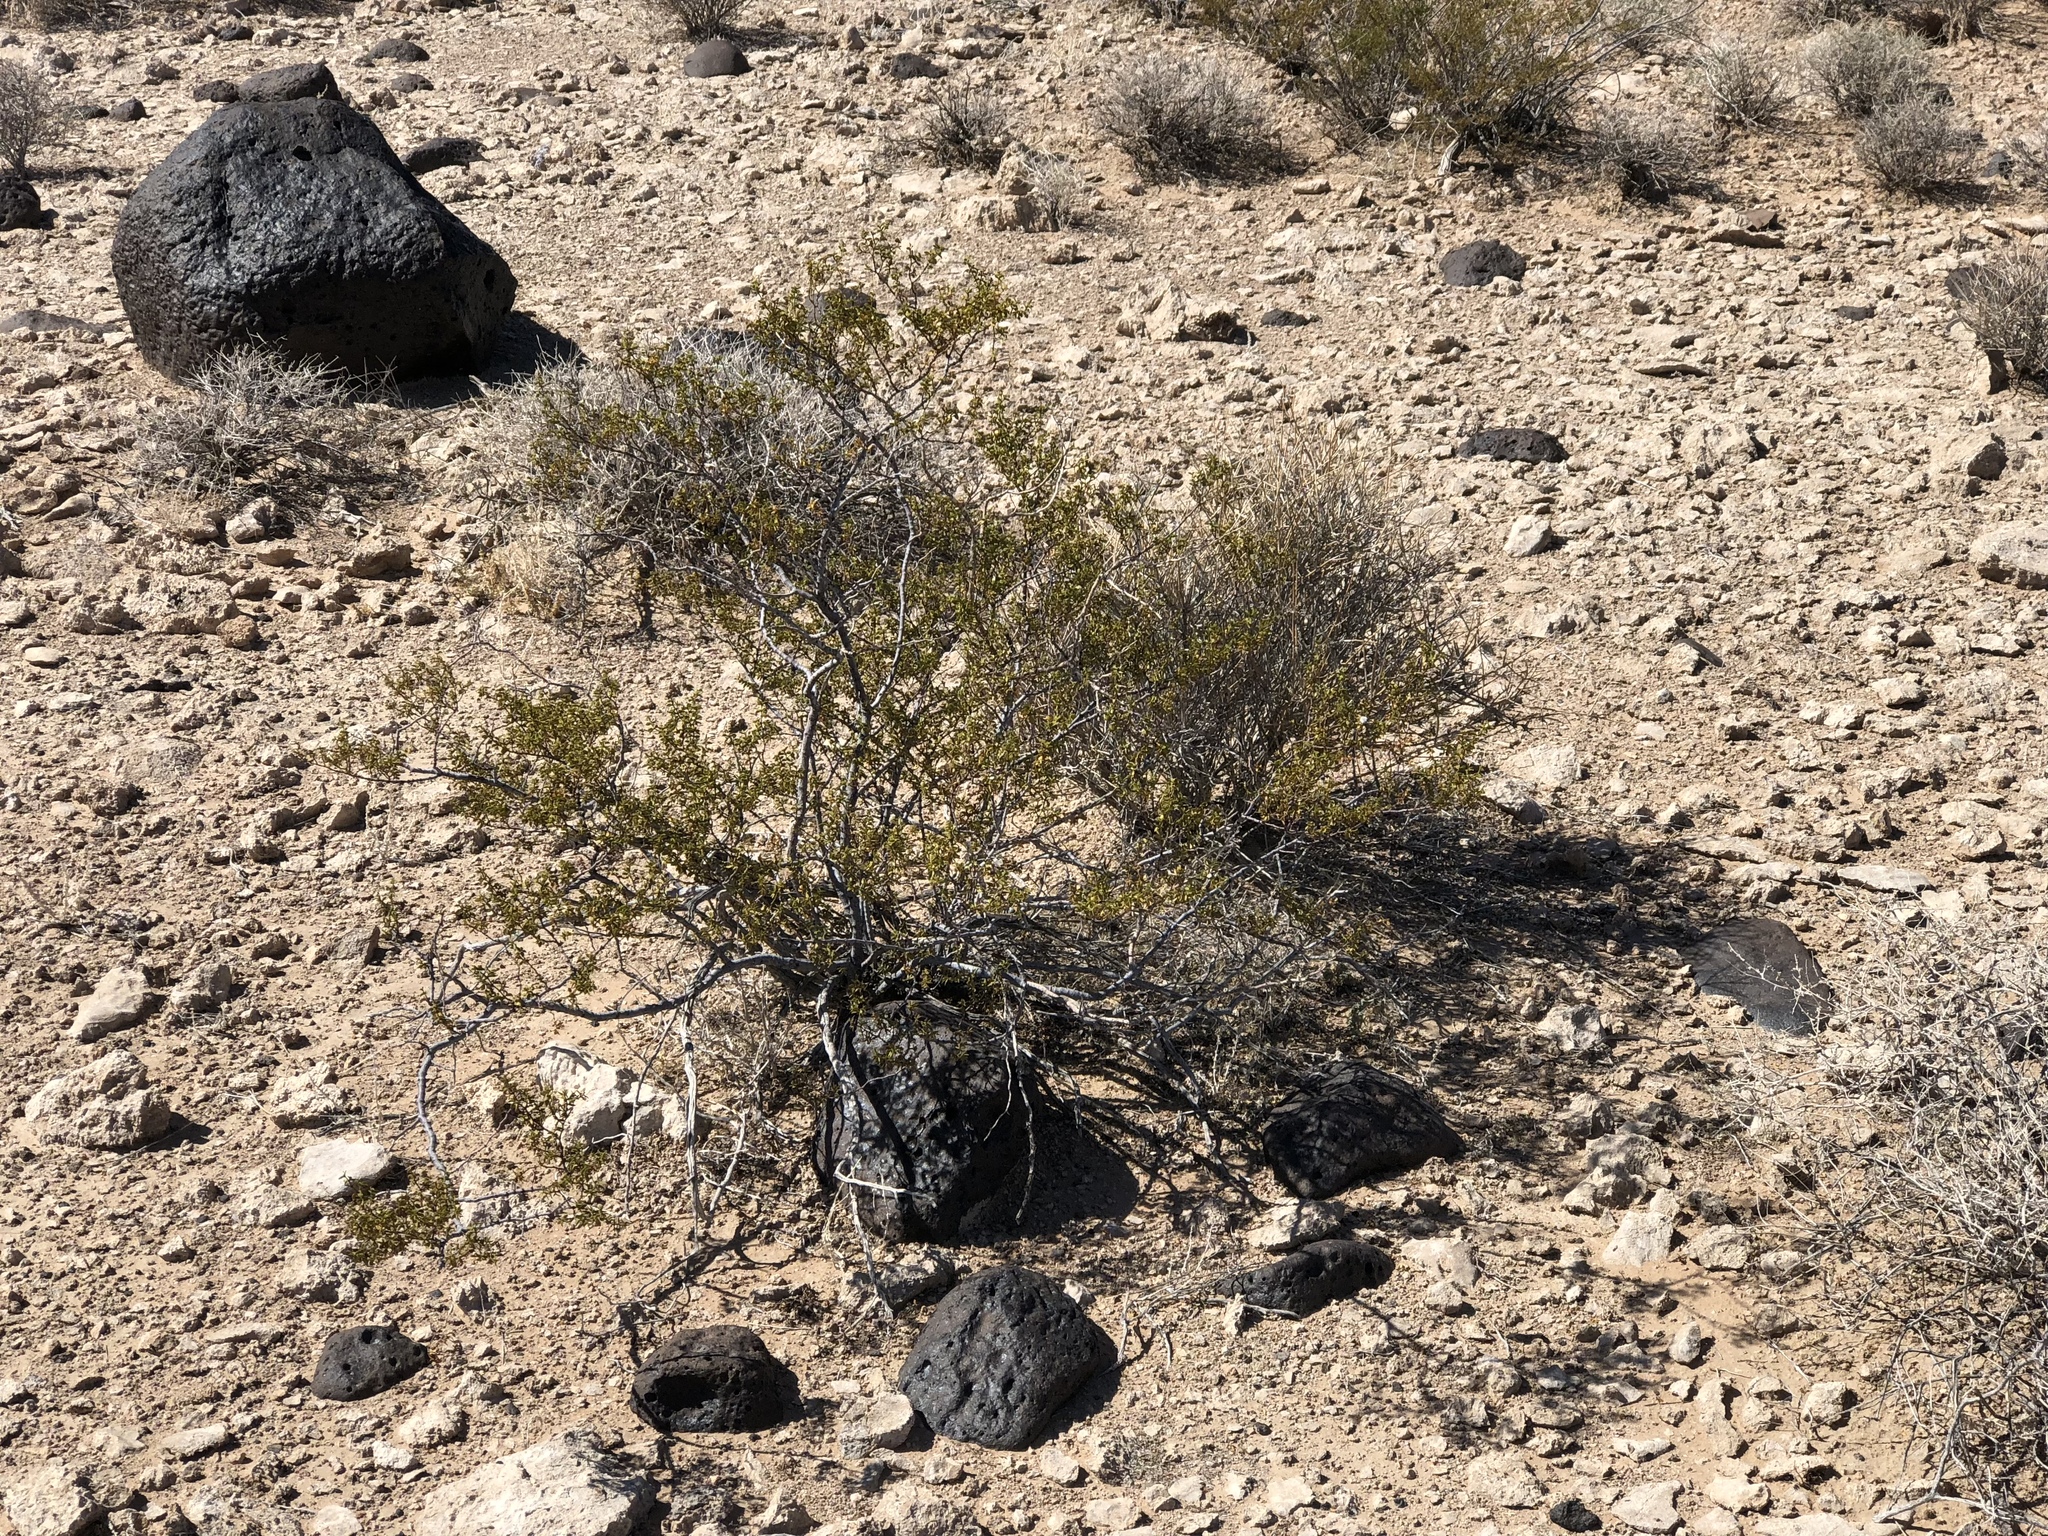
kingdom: Plantae
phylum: Tracheophyta
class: Magnoliopsida
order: Zygophyllales
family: Zygophyllaceae
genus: Larrea
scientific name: Larrea tridentata
